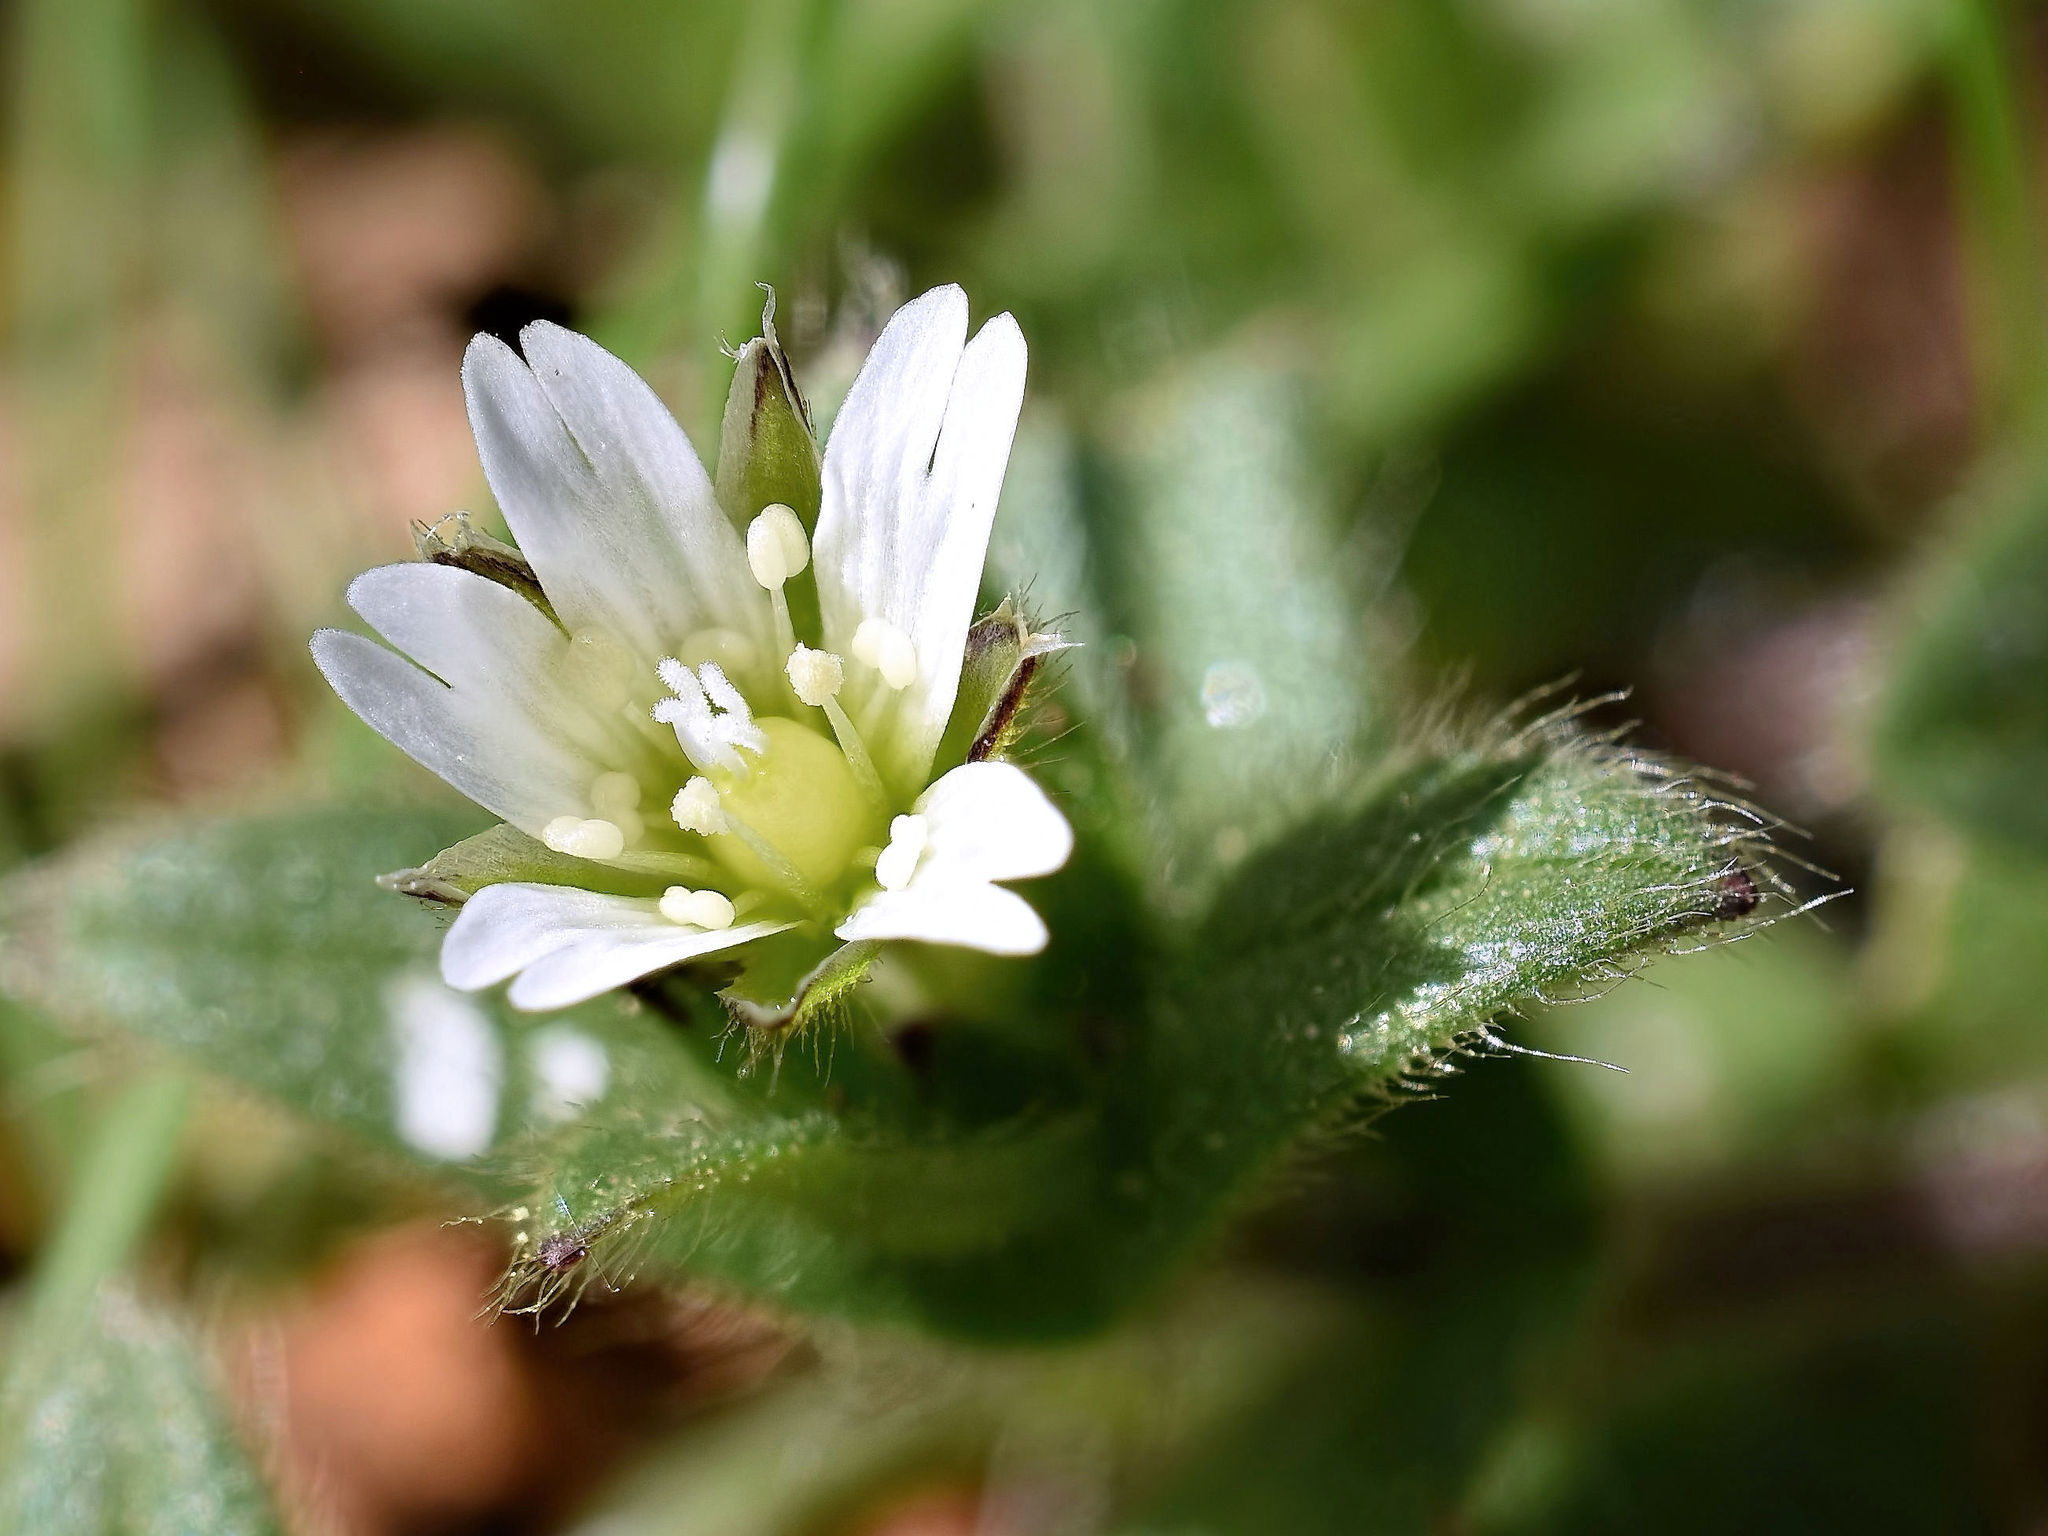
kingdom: Plantae
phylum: Tracheophyta
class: Magnoliopsida
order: Caryophyllales
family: Caryophyllaceae
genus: Cerastium
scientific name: Cerastium fontanum
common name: Common mouse-ear
